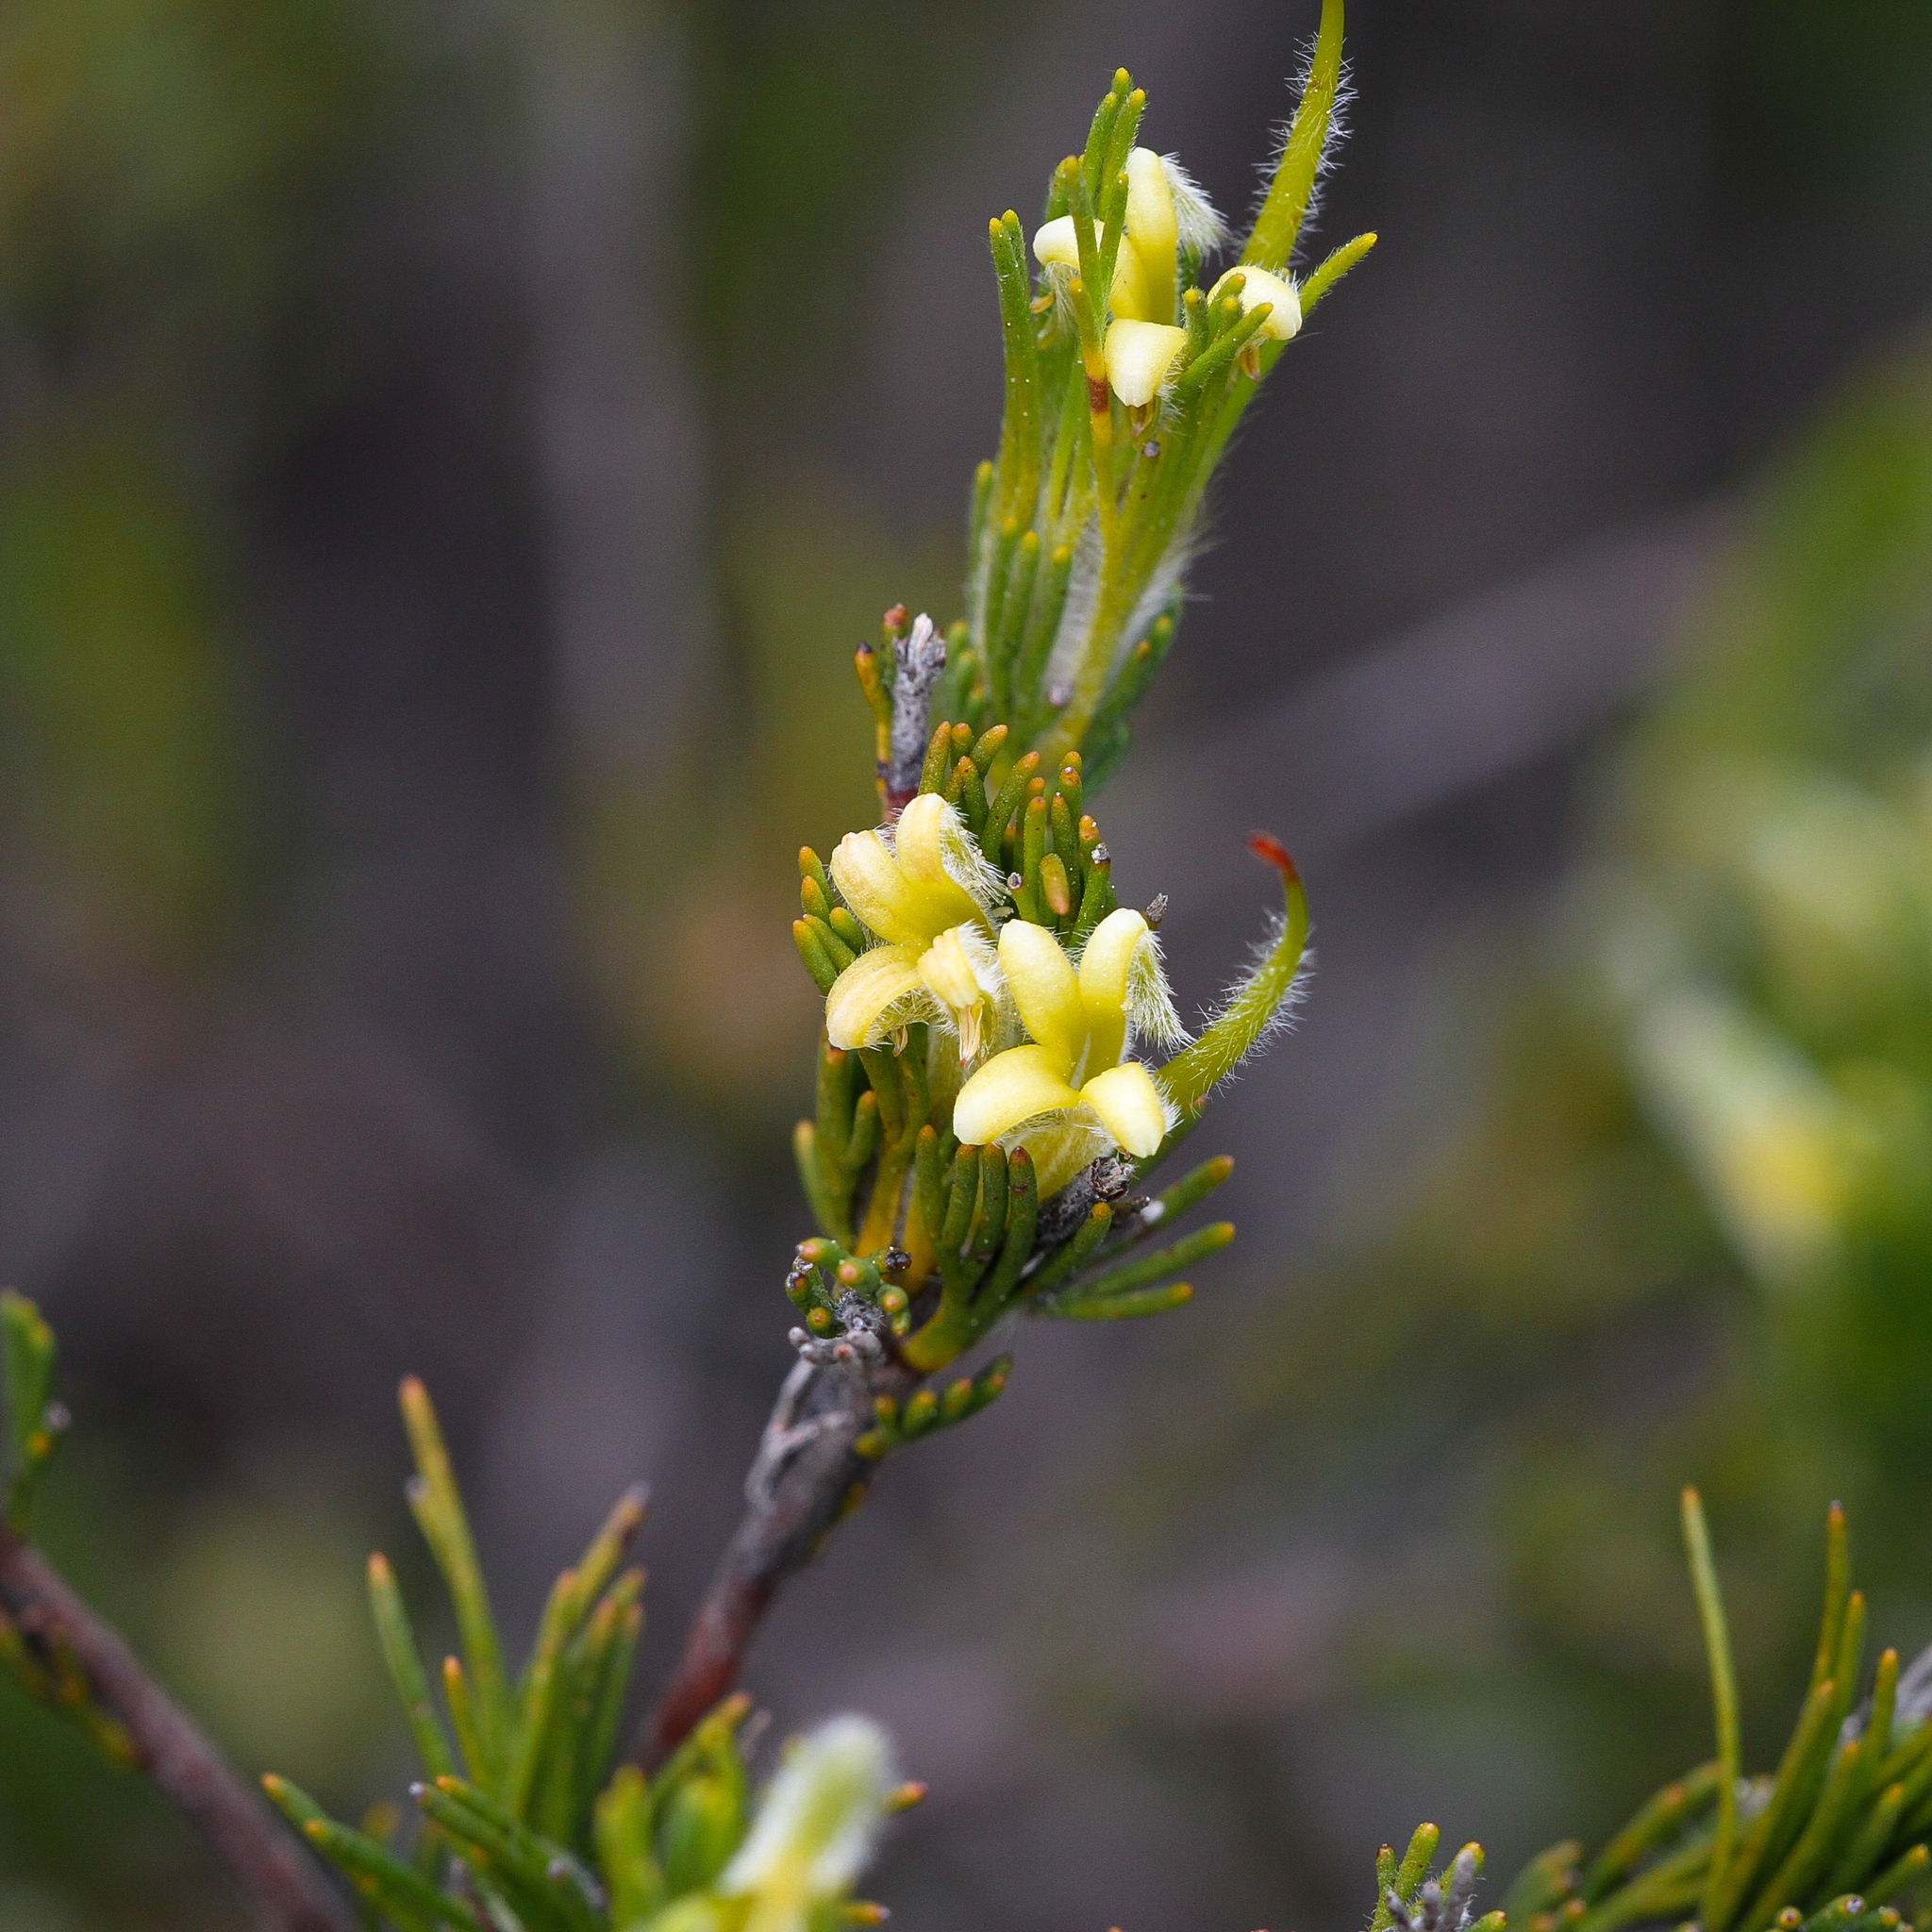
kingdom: Plantae
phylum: Tracheophyta
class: Magnoliopsida
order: Proteales
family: Proteaceae
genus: Adenanthos
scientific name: Adenanthos terminalis
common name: Yellow gland-flower
